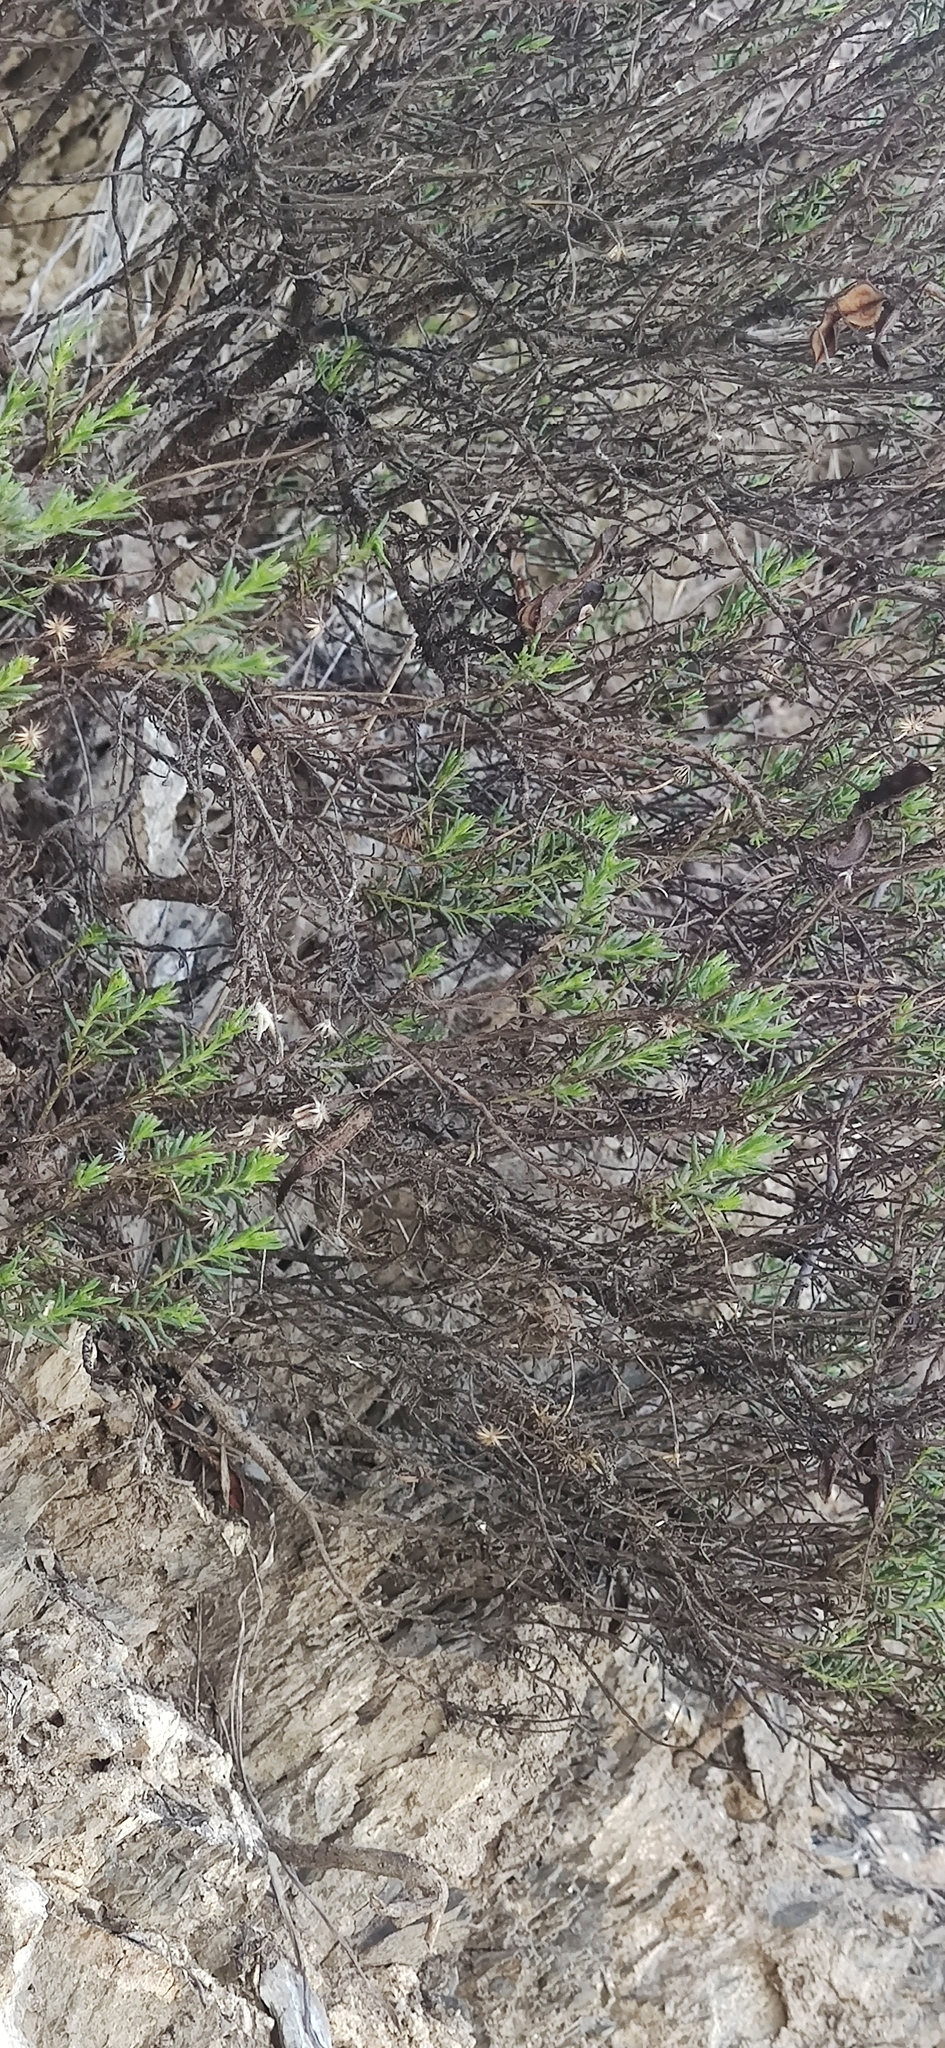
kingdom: Plantae
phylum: Tracheophyta
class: Magnoliopsida
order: Asterales
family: Asteraceae
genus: Chrysactinia
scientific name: Chrysactinia mexicana
